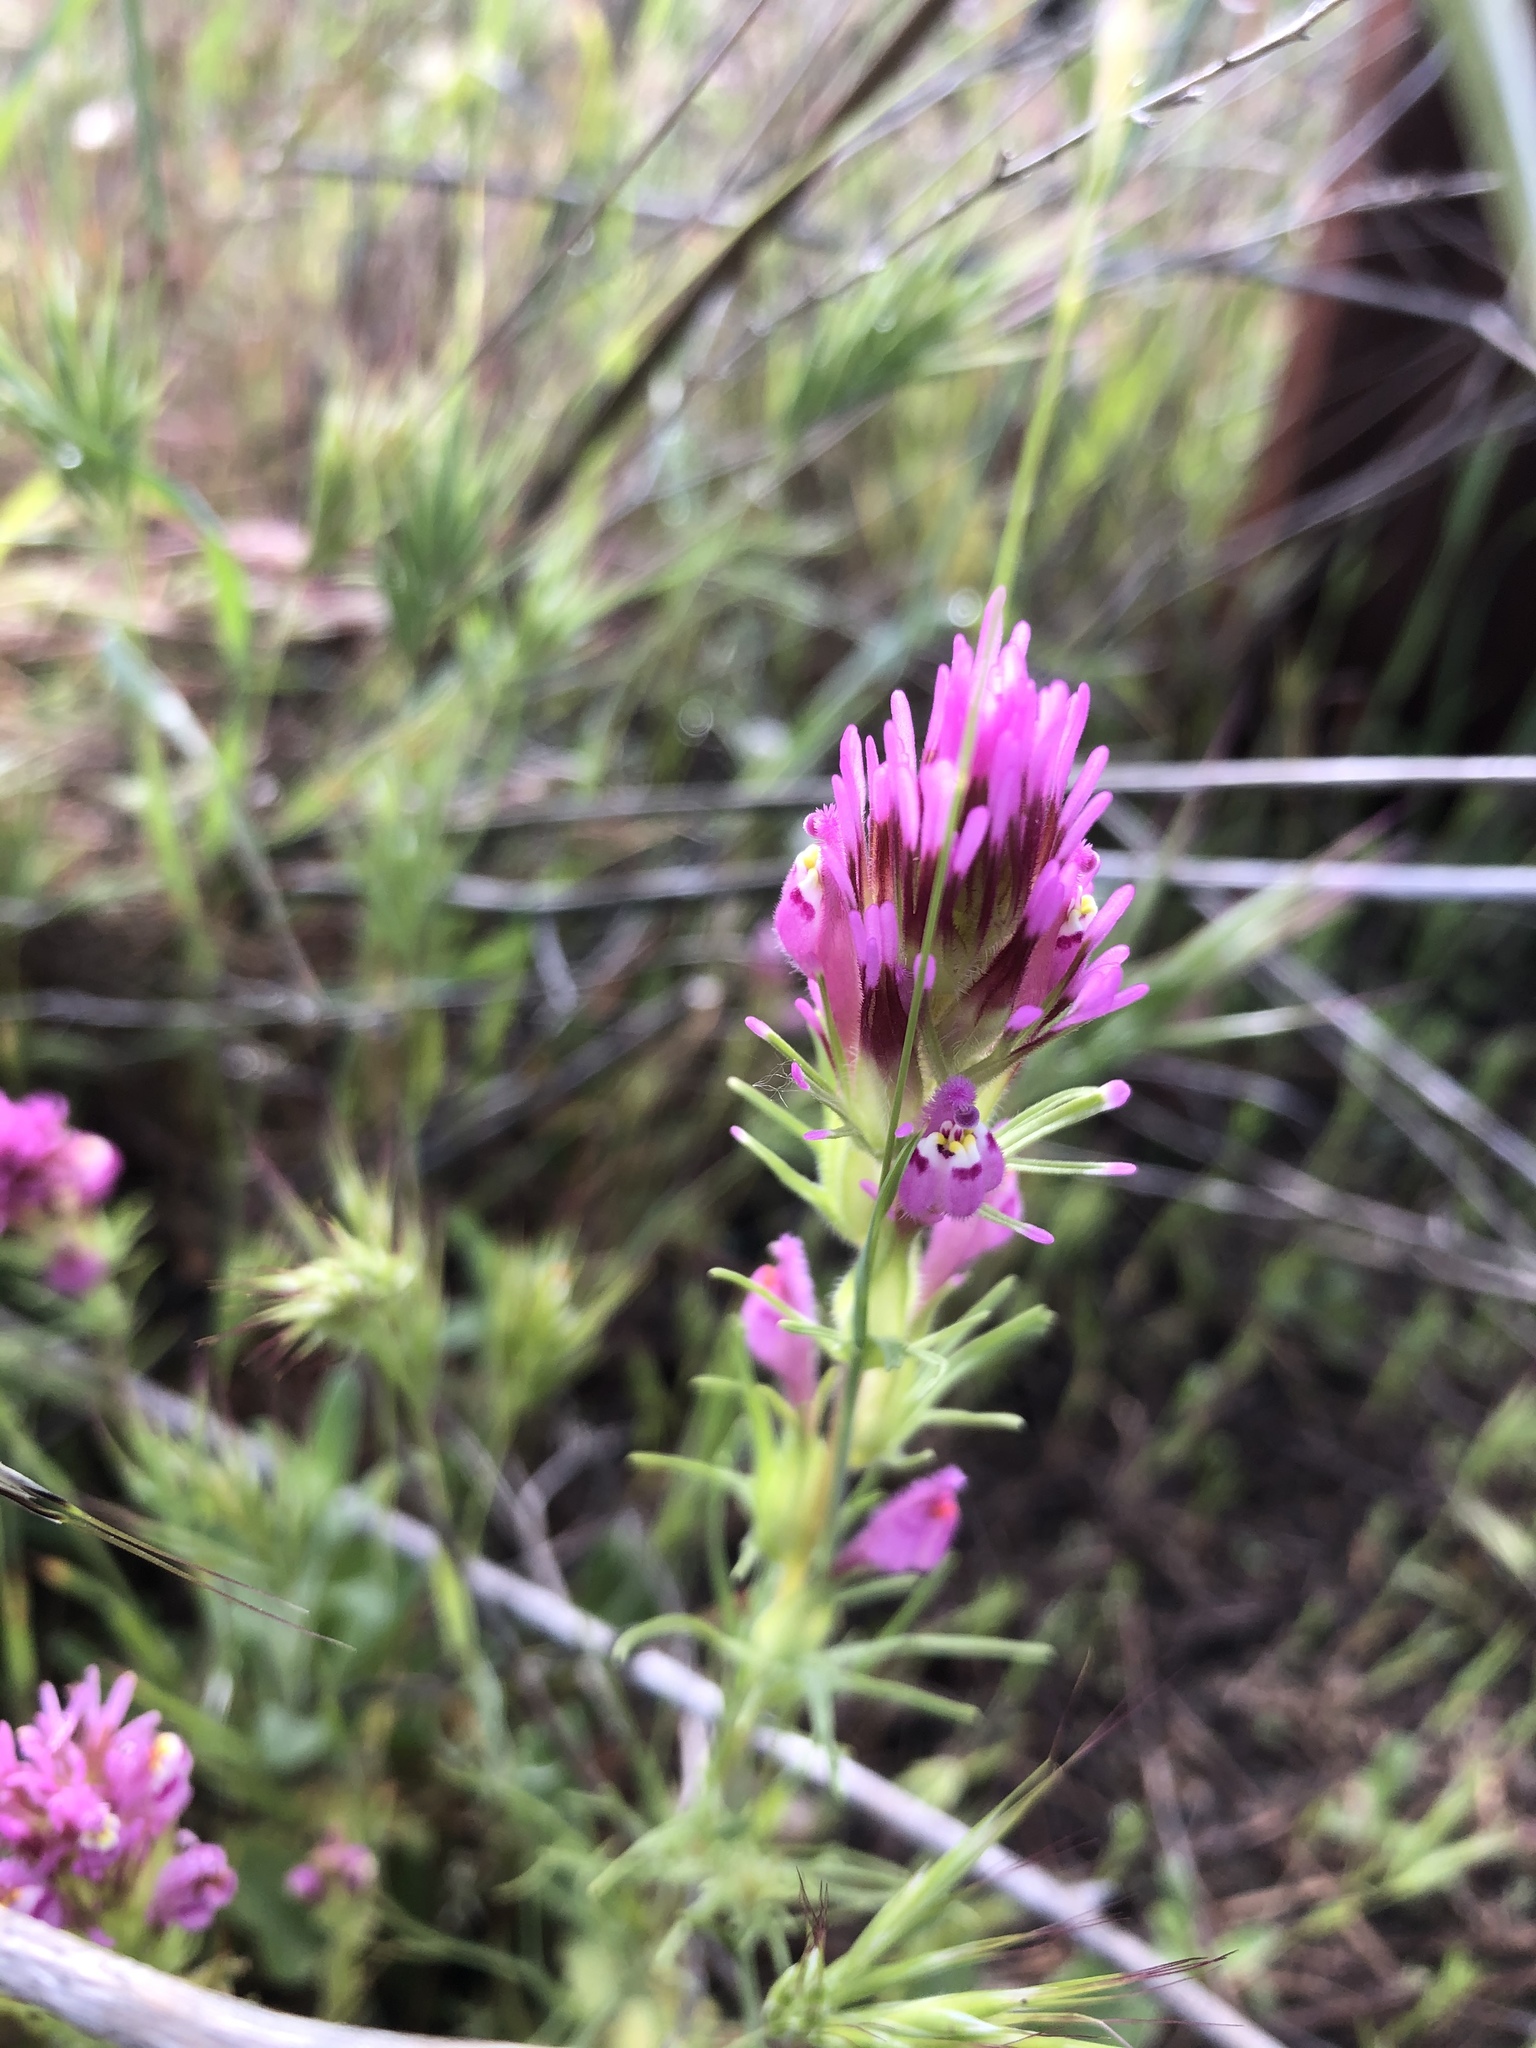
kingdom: Plantae
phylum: Tracheophyta
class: Magnoliopsida
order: Lamiales
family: Orobanchaceae
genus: Castilleja
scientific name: Castilleja exserta
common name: Purple owl-clover
